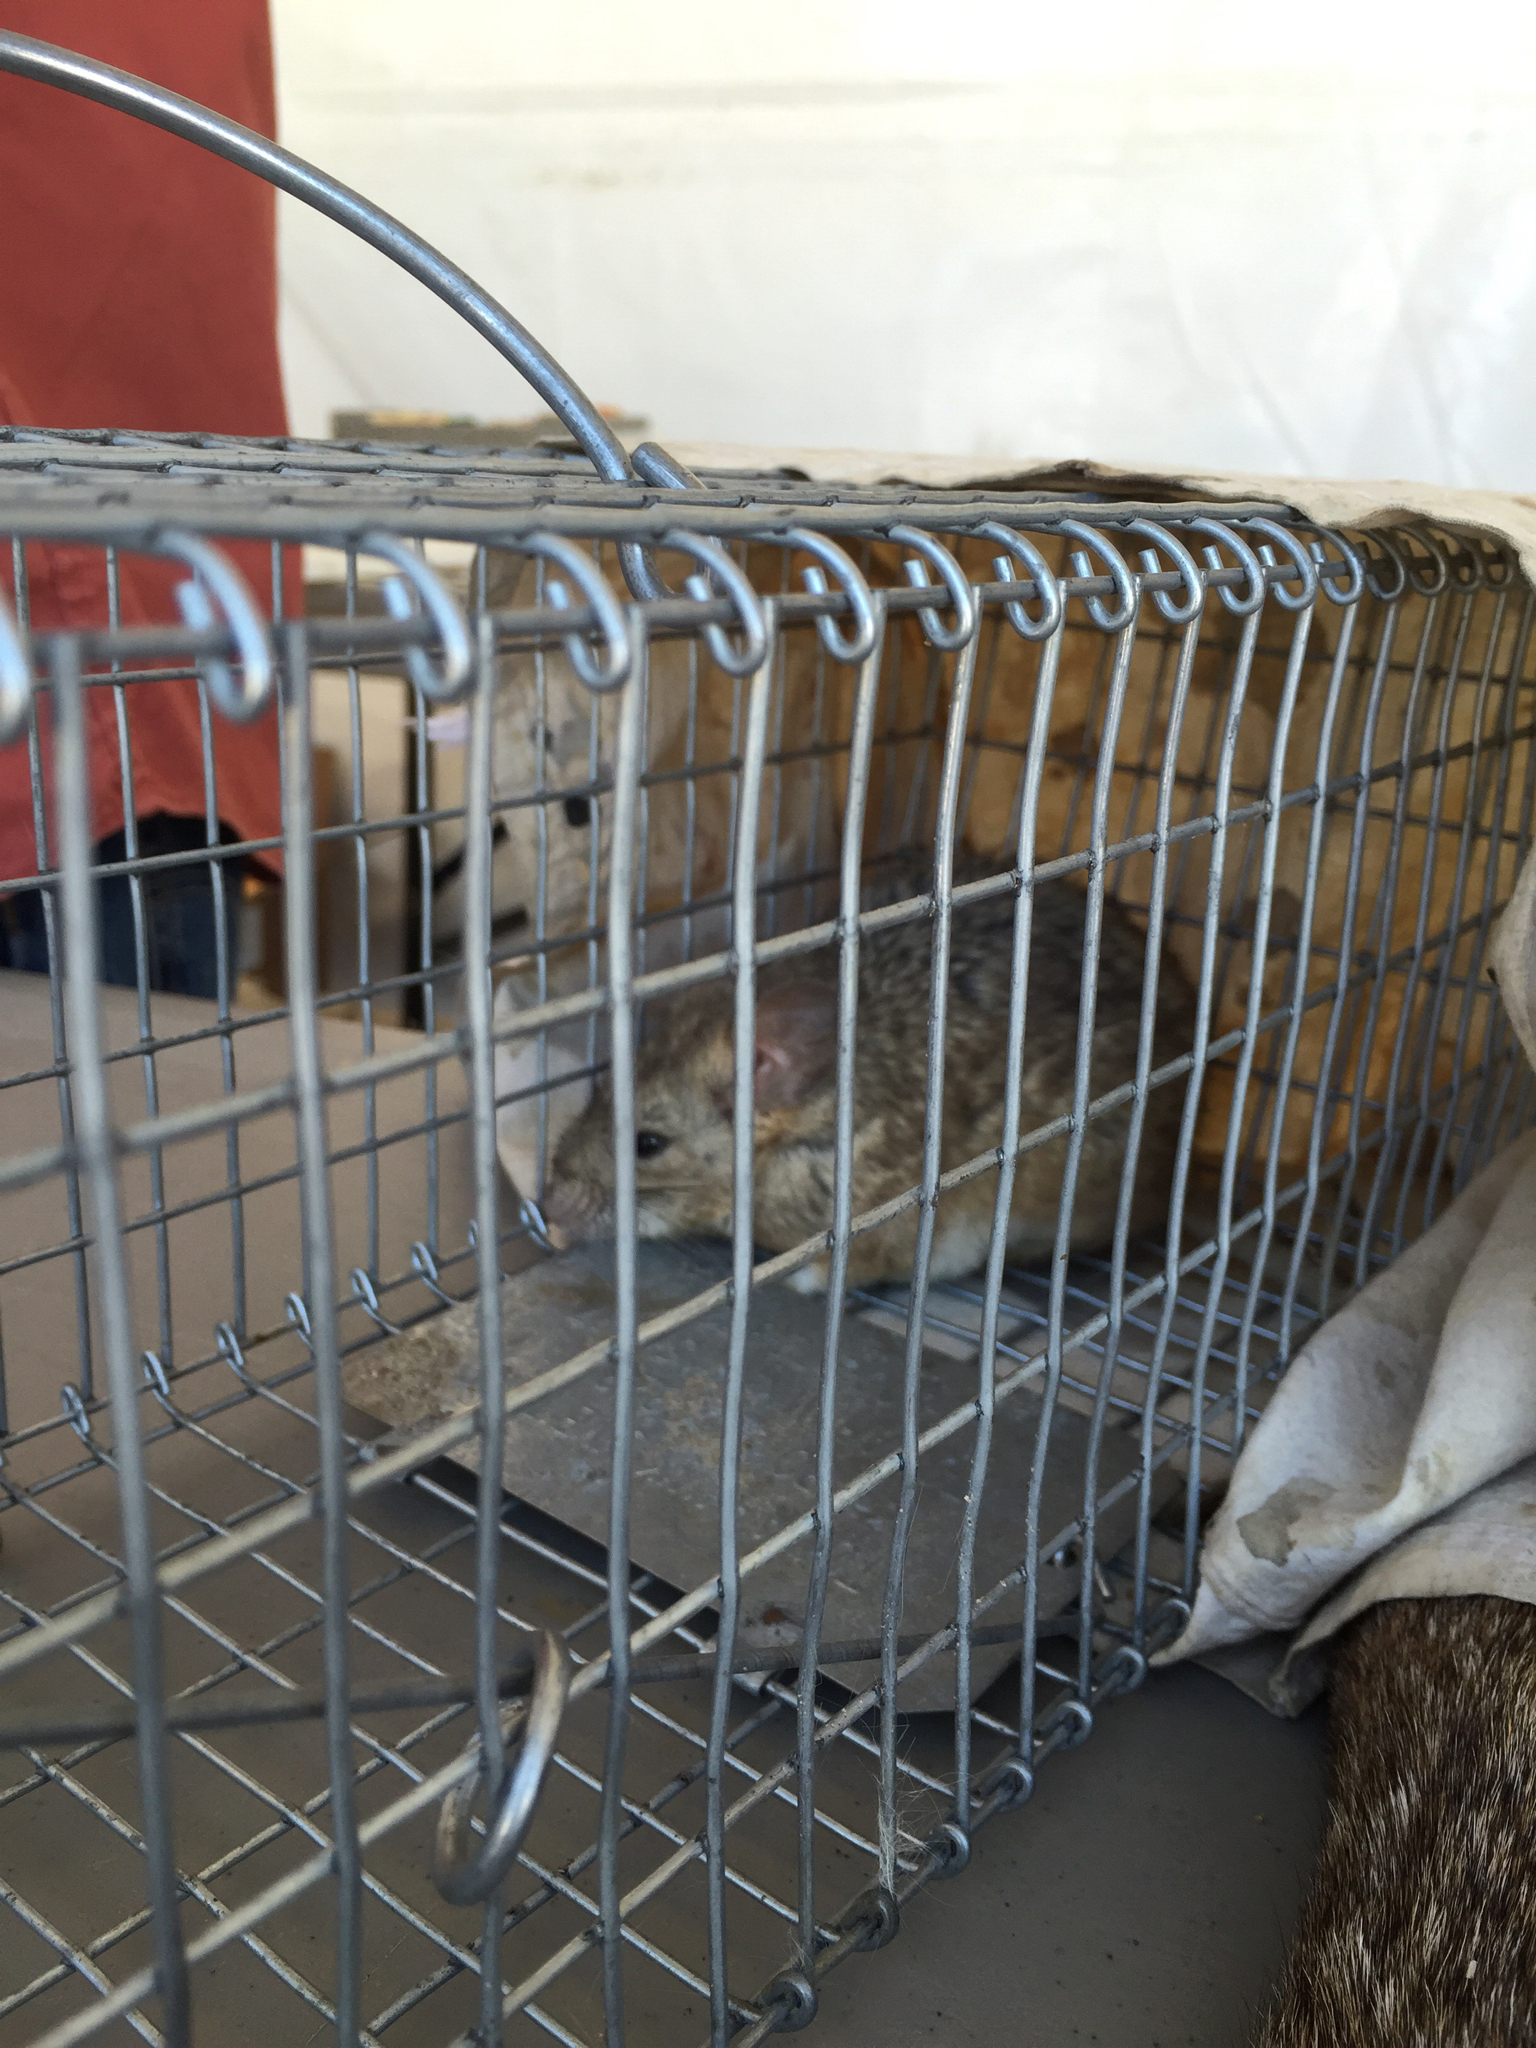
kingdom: Animalia
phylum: Chordata
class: Mammalia
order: Rodentia
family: Cricetidae
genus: Neotoma
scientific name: Neotoma lepida
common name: Desert woodrat
